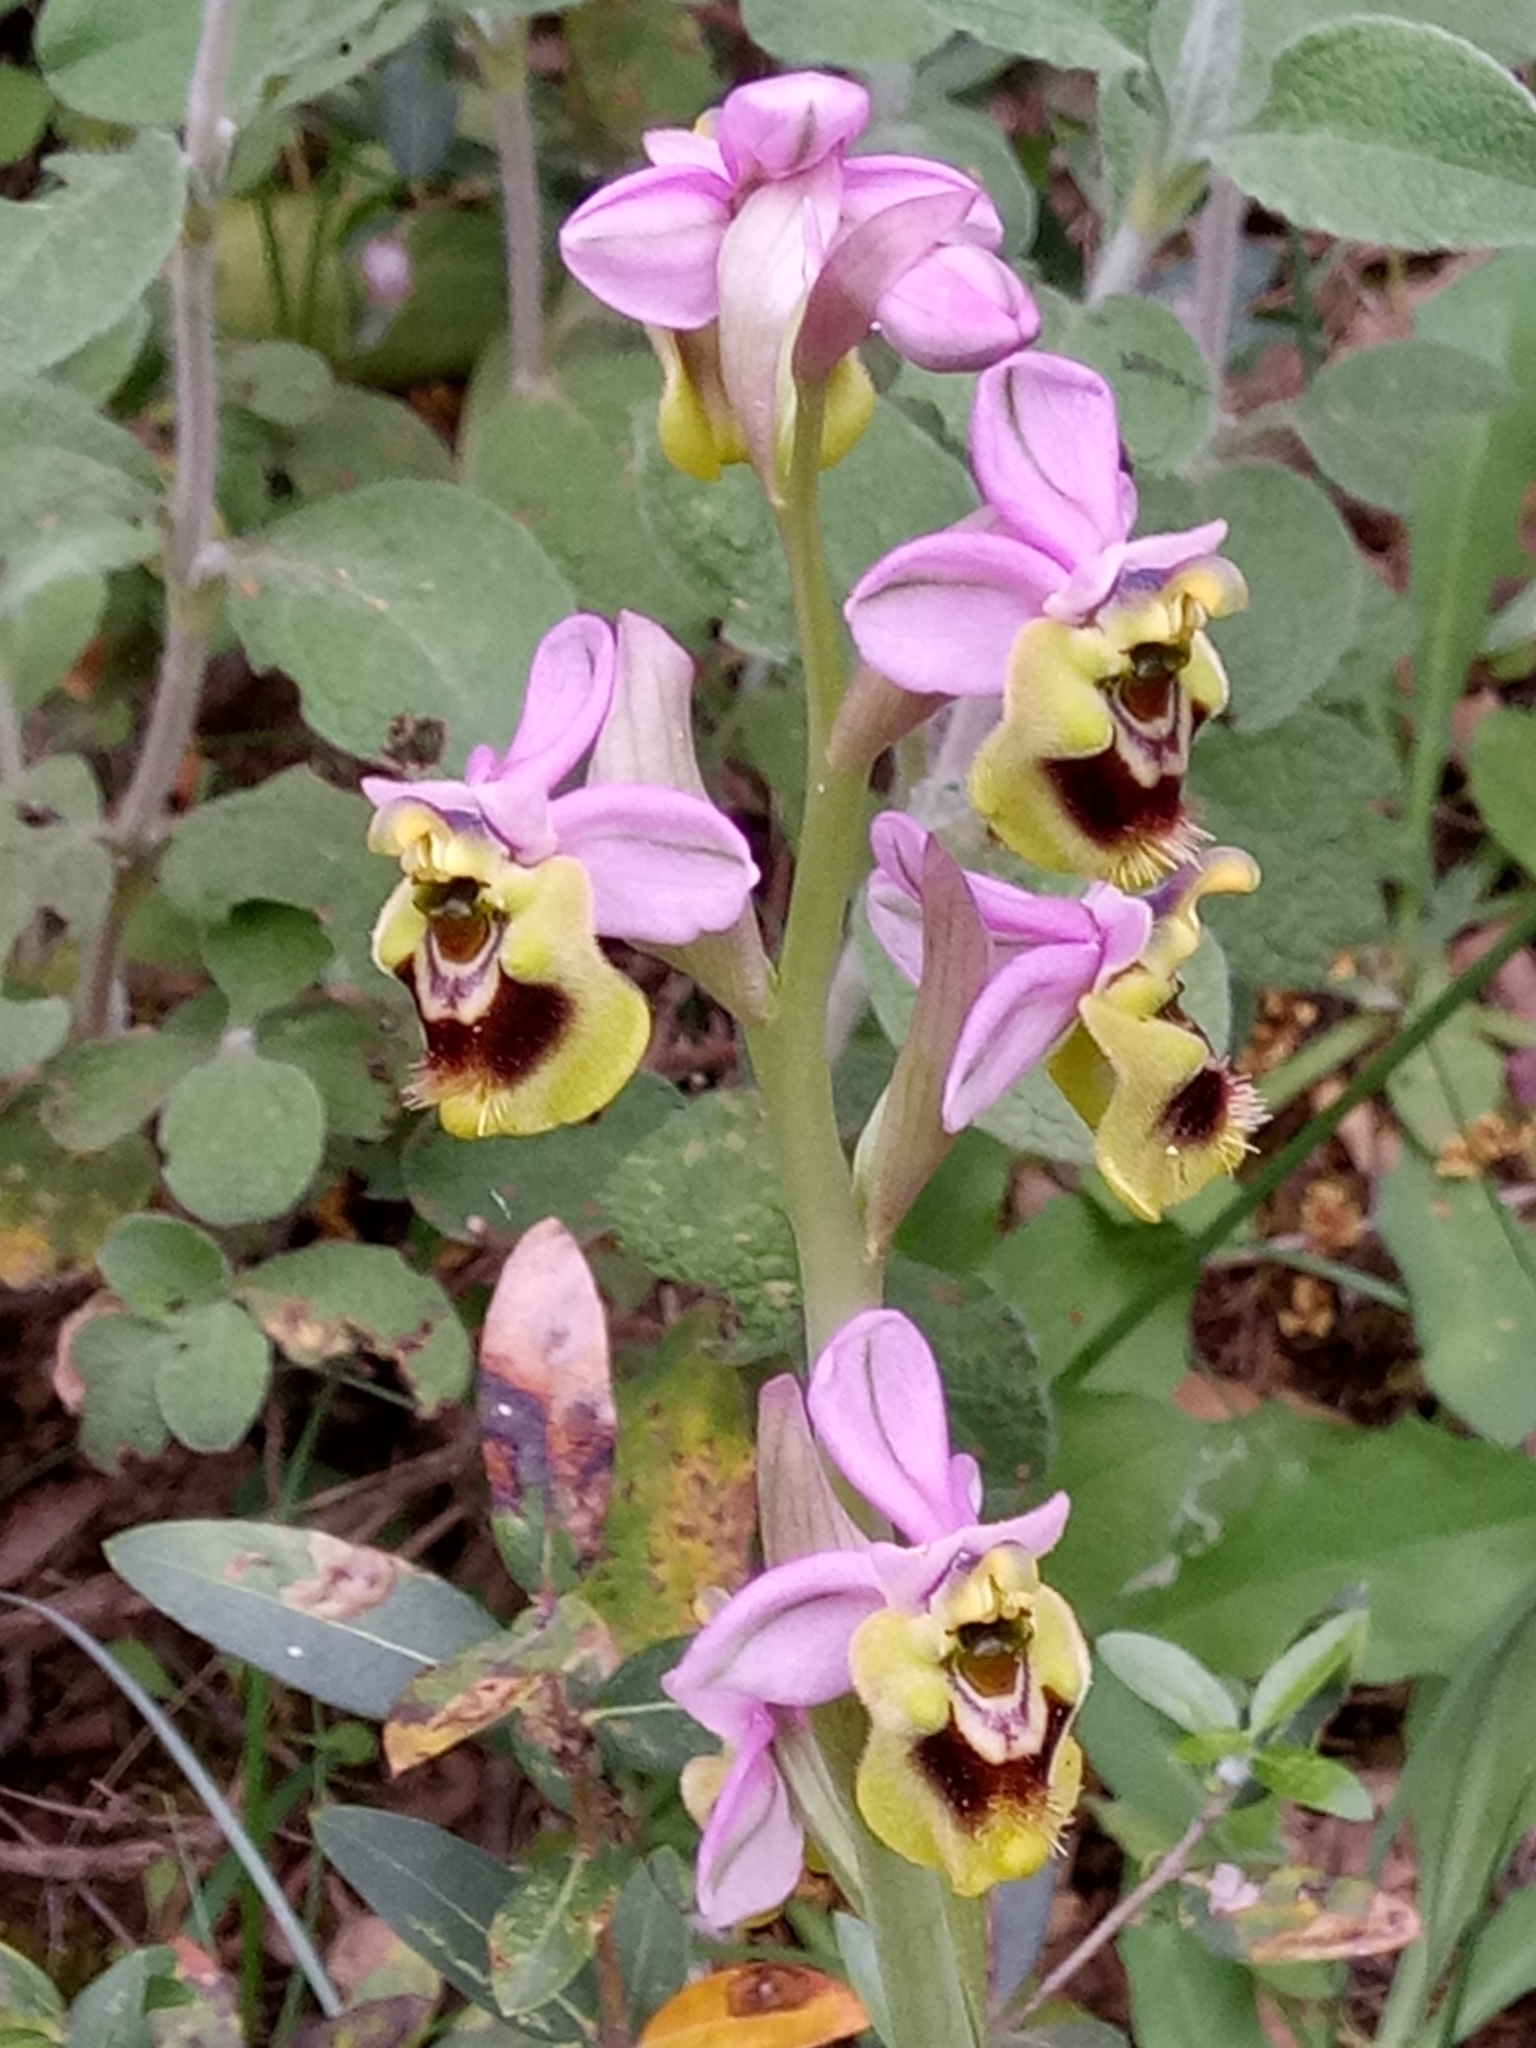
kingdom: Plantae
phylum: Tracheophyta
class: Liliopsida
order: Asparagales
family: Orchidaceae
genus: Ophrys
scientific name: Ophrys tenthredinifera
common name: Sawfly orchid
